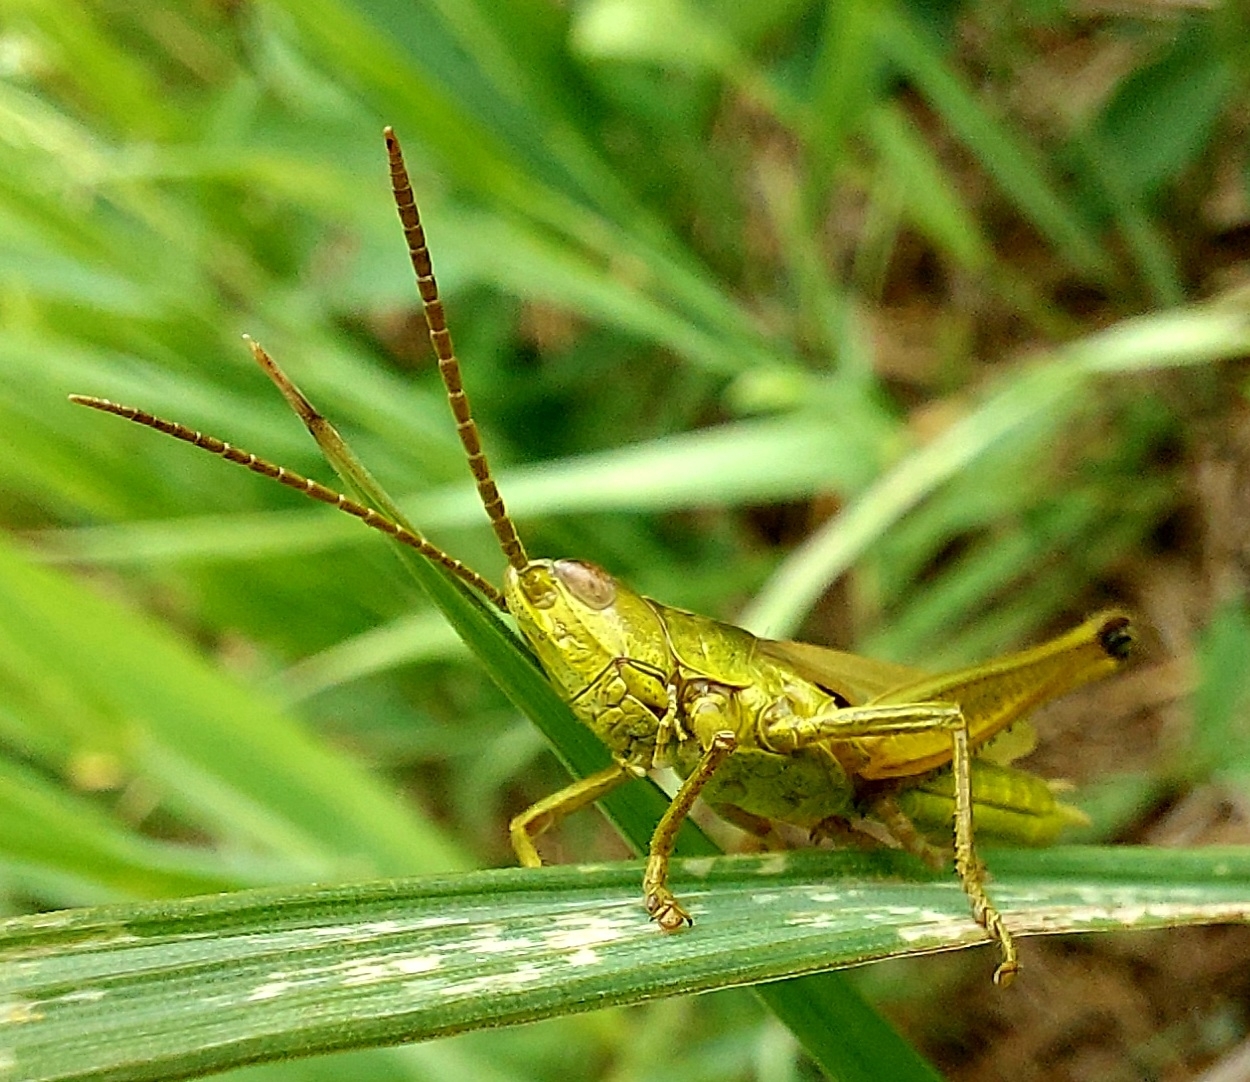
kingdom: Animalia
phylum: Arthropoda
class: Insecta
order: Orthoptera
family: Acrididae
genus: Chrysochraon
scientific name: Chrysochraon dispar
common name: Large gold grasshopper
